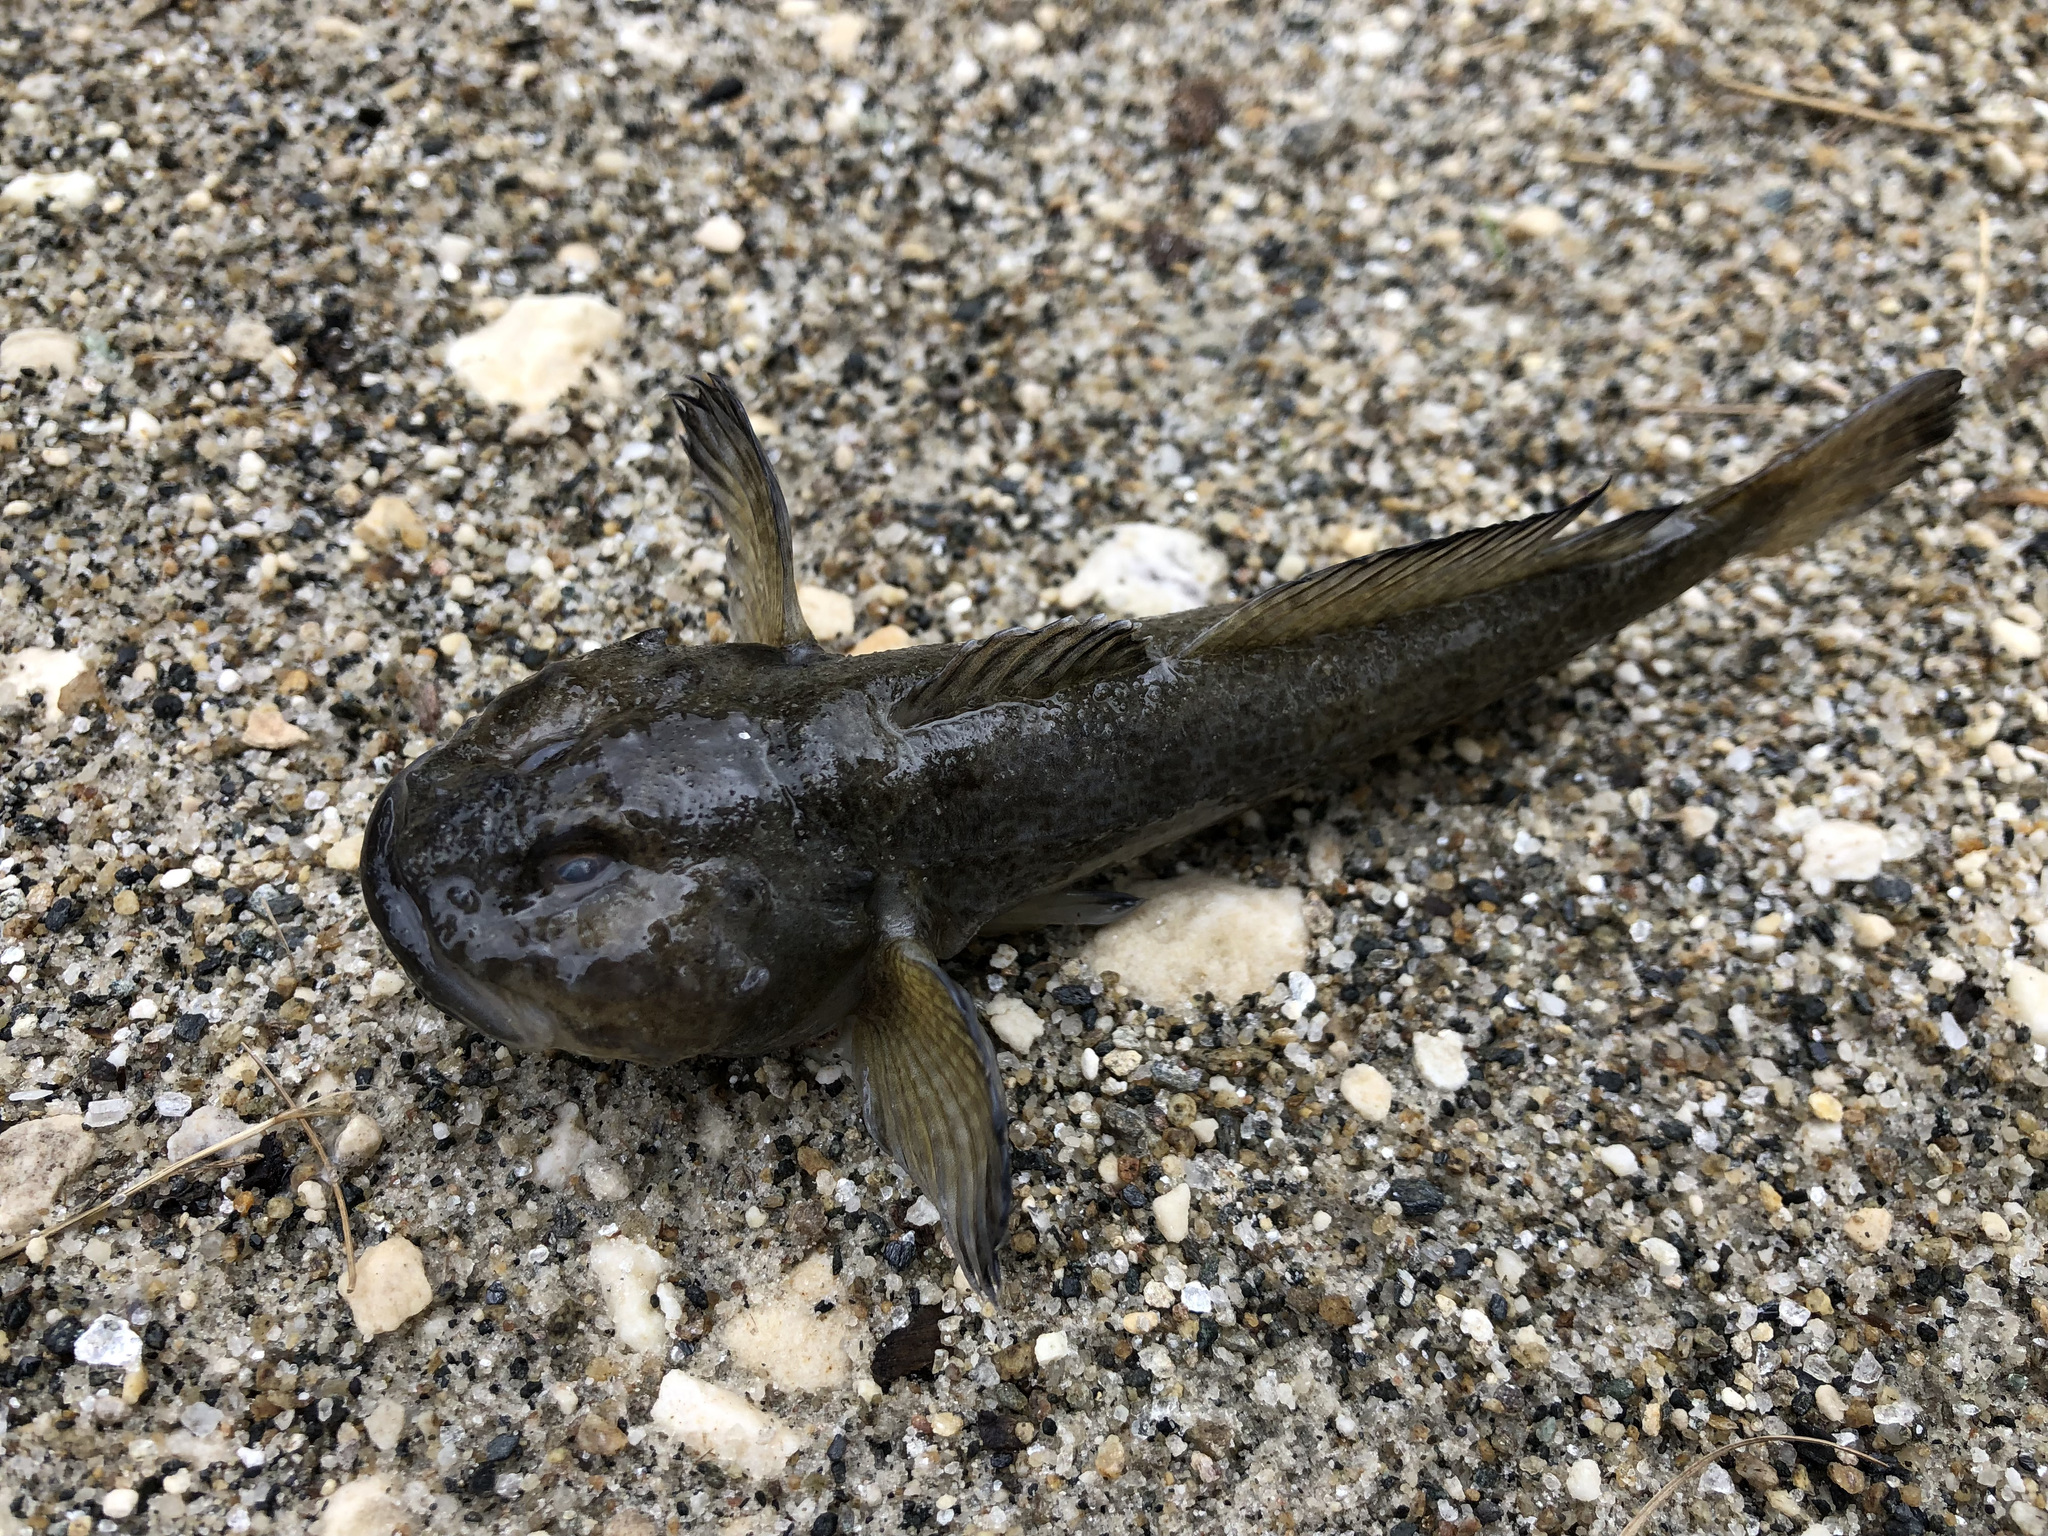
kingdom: Animalia
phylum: Chordata
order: Scorpaeniformes
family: Cottidae
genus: Cottus
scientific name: Cottus gobio
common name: Bullhead
